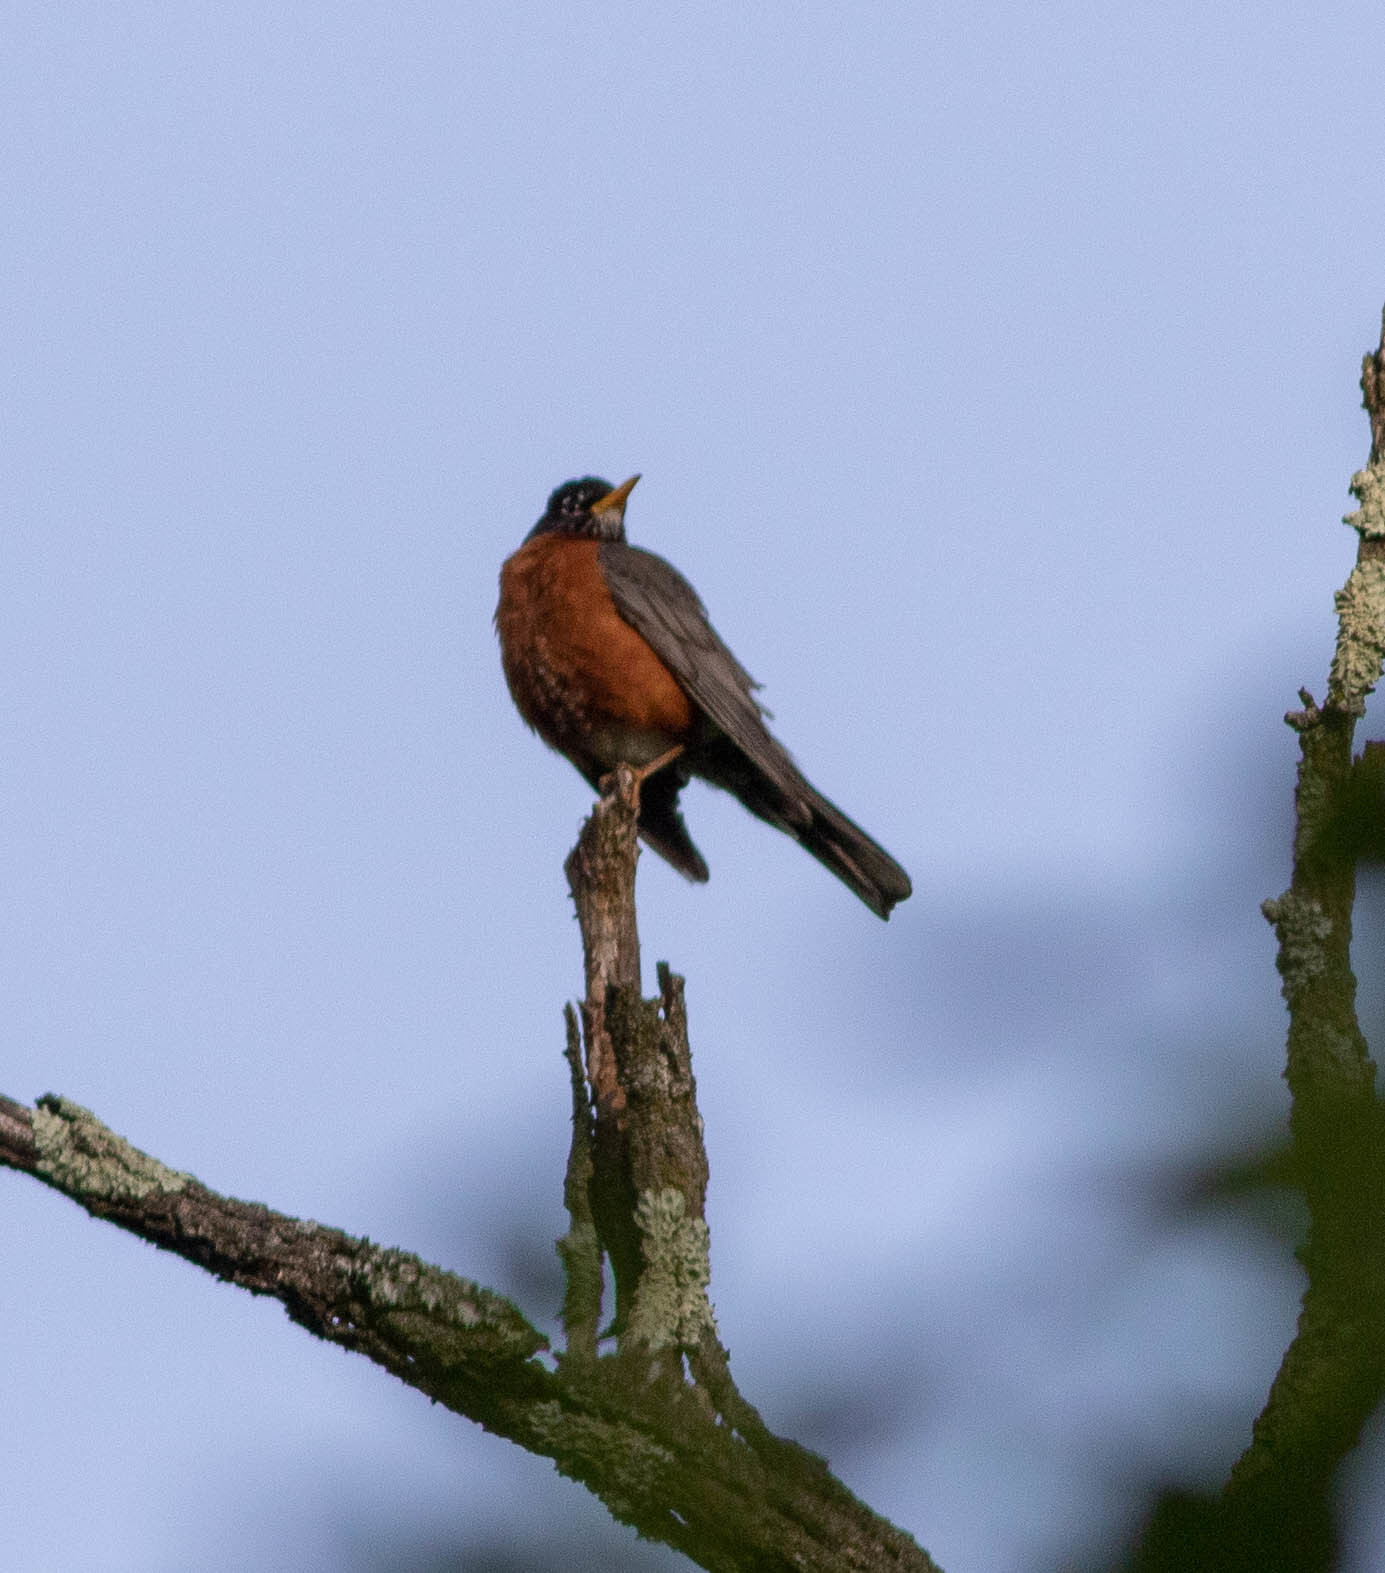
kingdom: Animalia
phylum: Chordata
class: Aves
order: Passeriformes
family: Turdidae
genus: Turdus
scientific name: Turdus migratorius
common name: American robin
